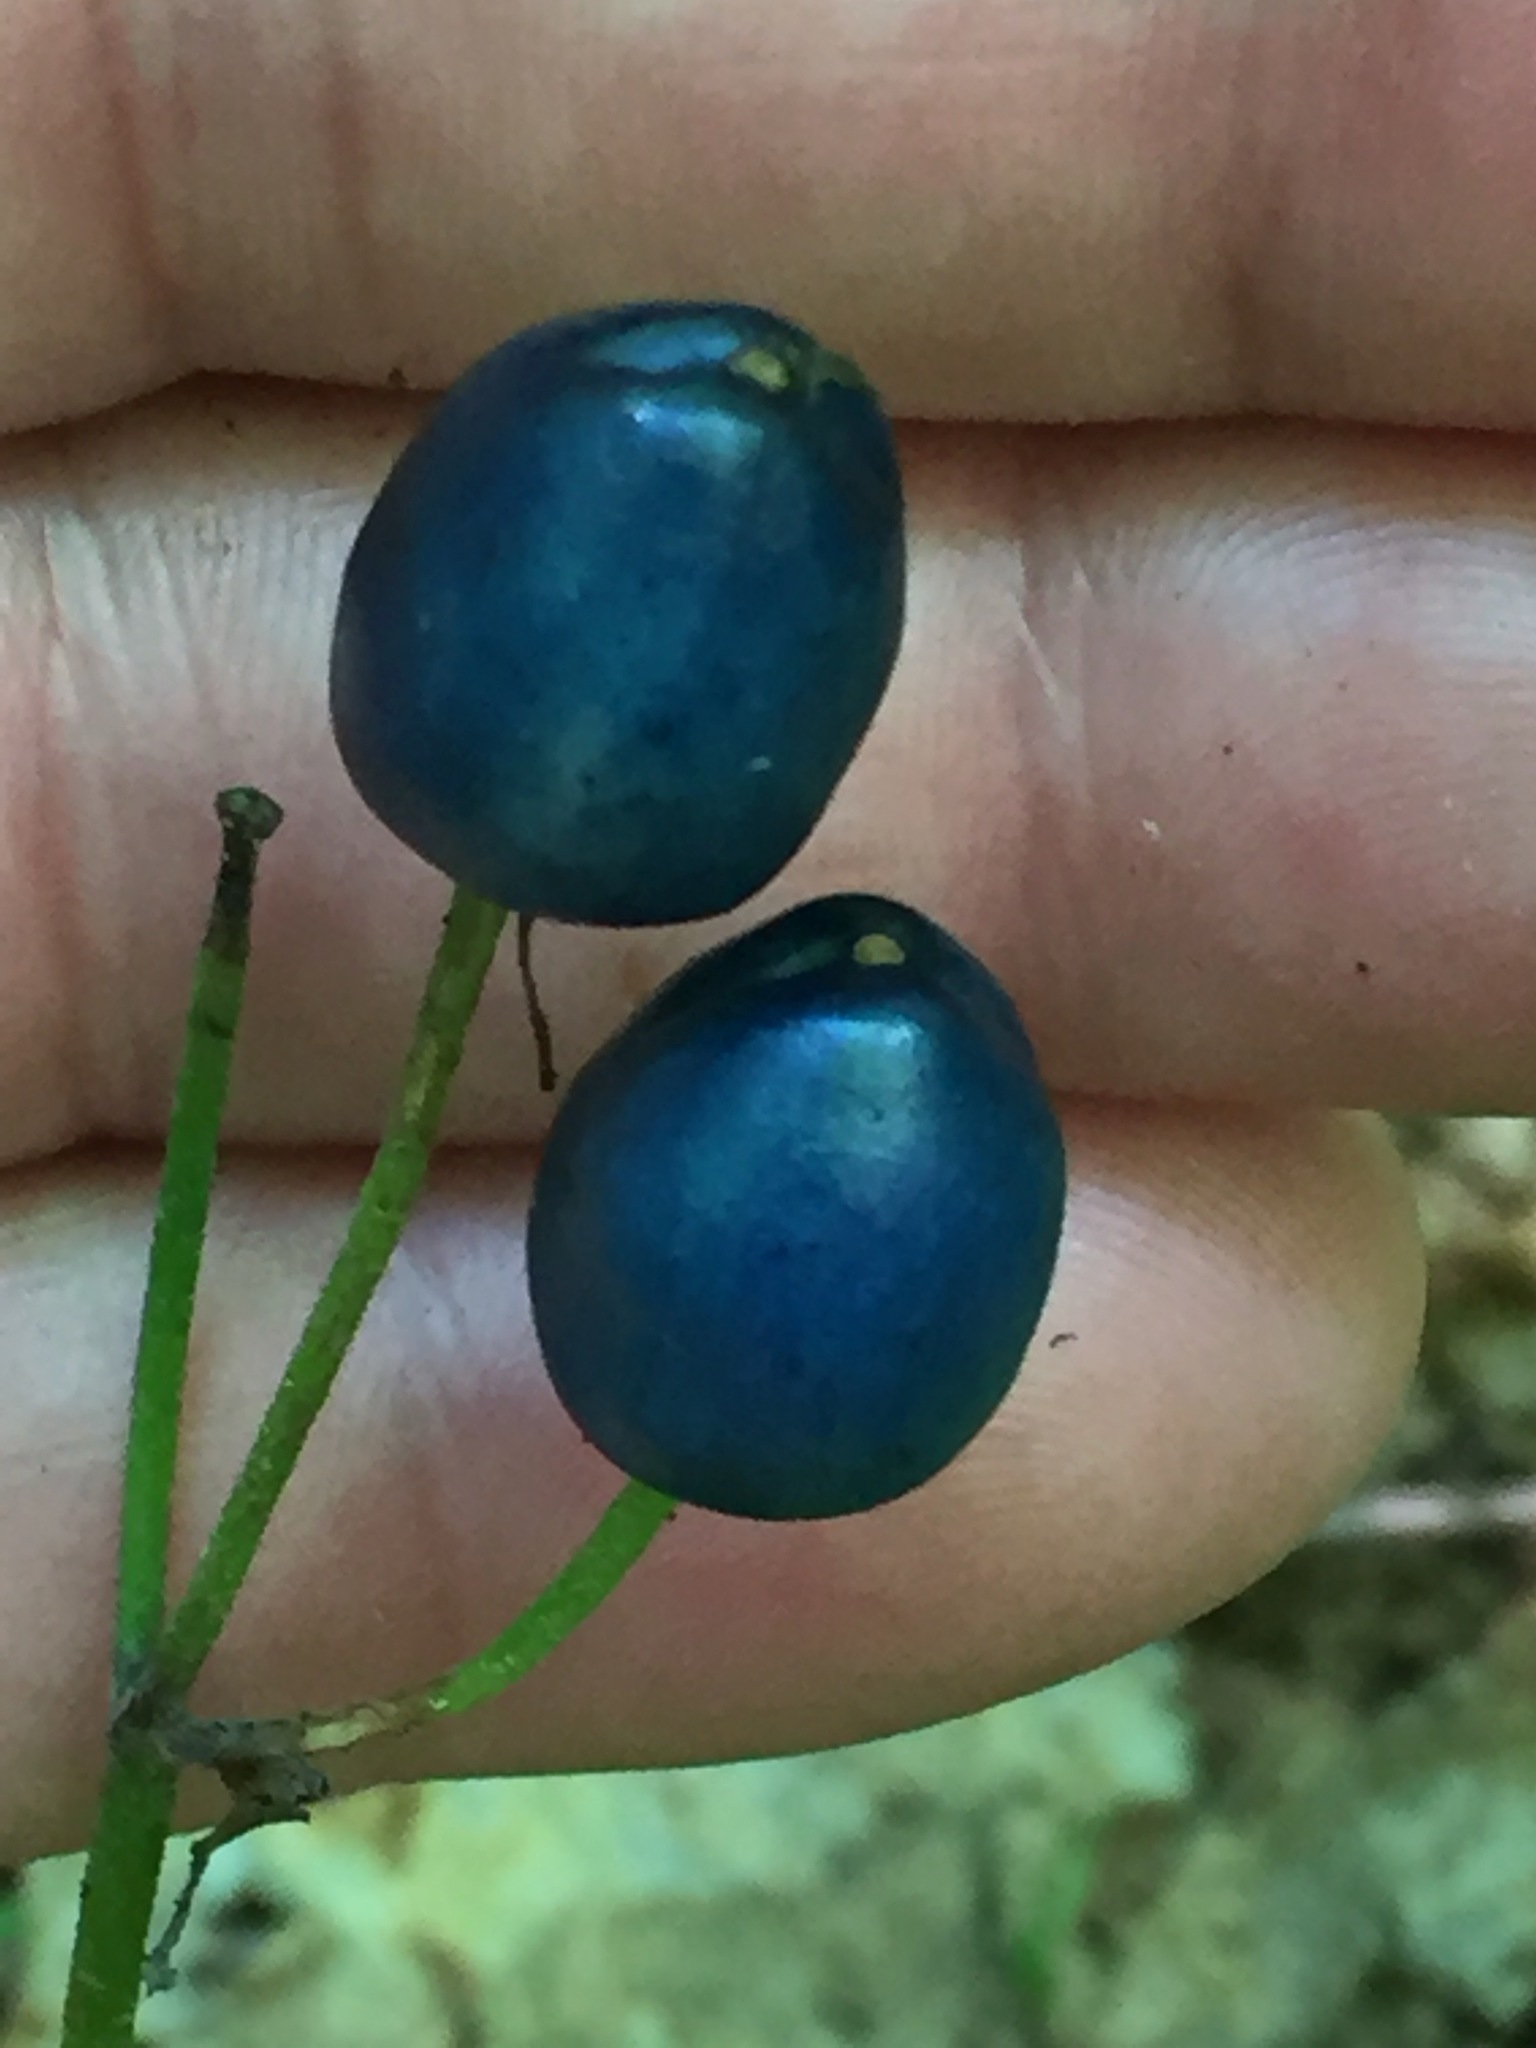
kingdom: Plantae
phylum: Tracheophyta
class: Liliopsida
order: Liliales
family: Liliaceae
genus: Clintonia
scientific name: Clintonia borealis
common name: Yellow clintonia
